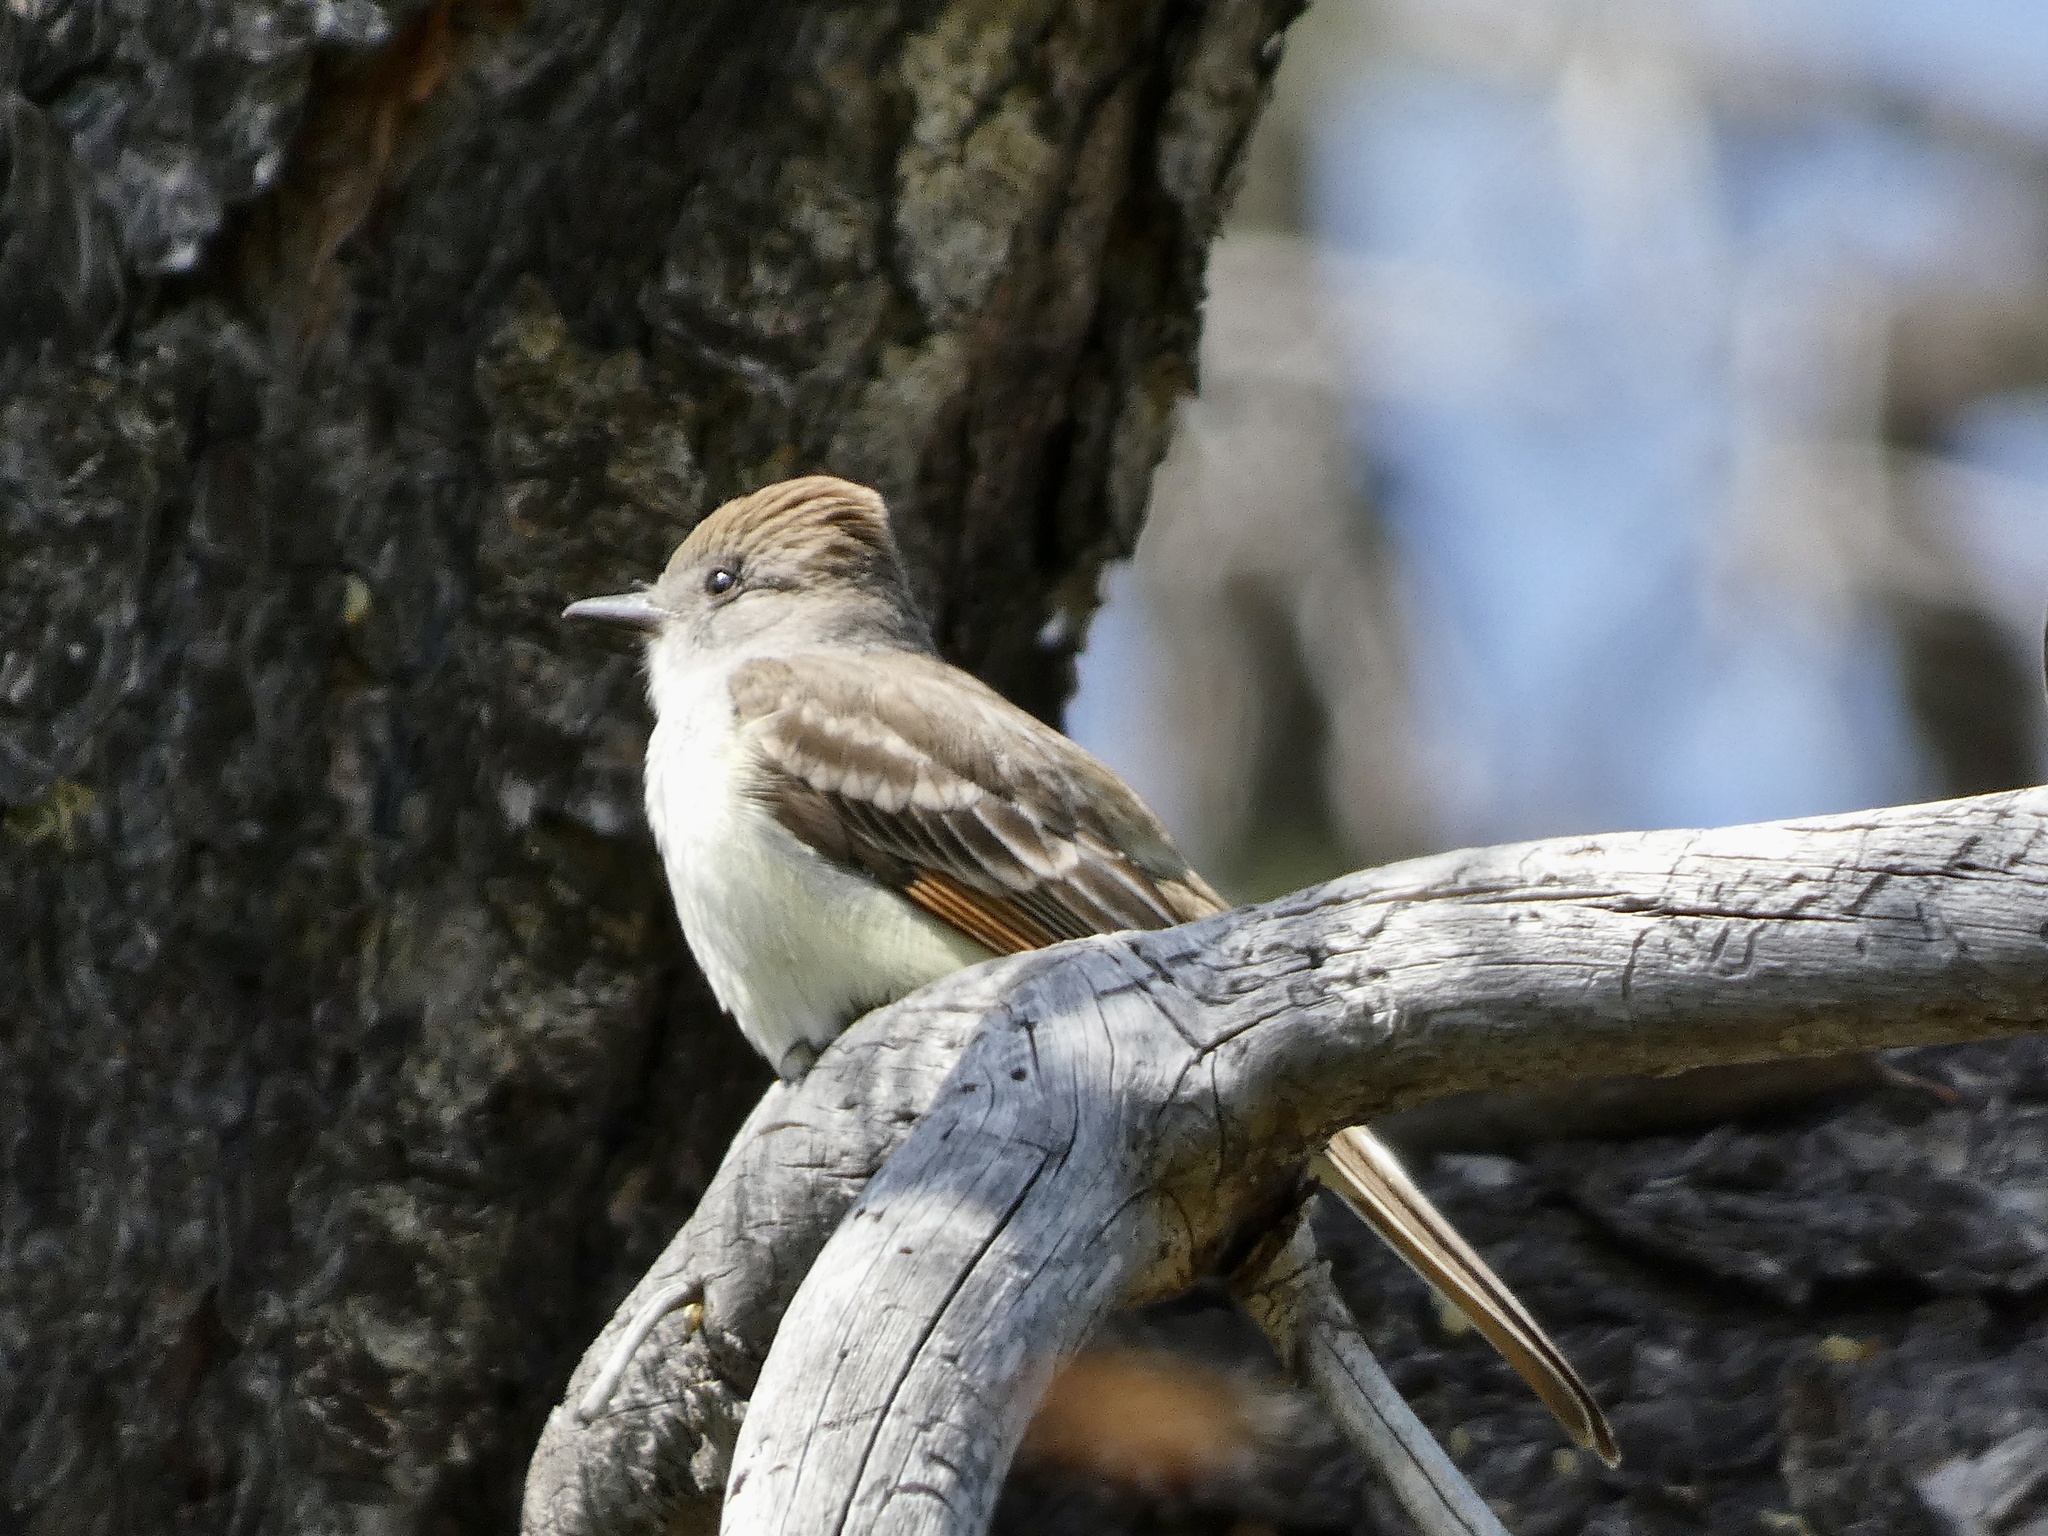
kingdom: Animalia
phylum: Chordata
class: Aves
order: Passeriformes
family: Tyrannidae
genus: Myiarchus
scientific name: Myiarchus cinerascens
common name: Ash-throated flycatcher
